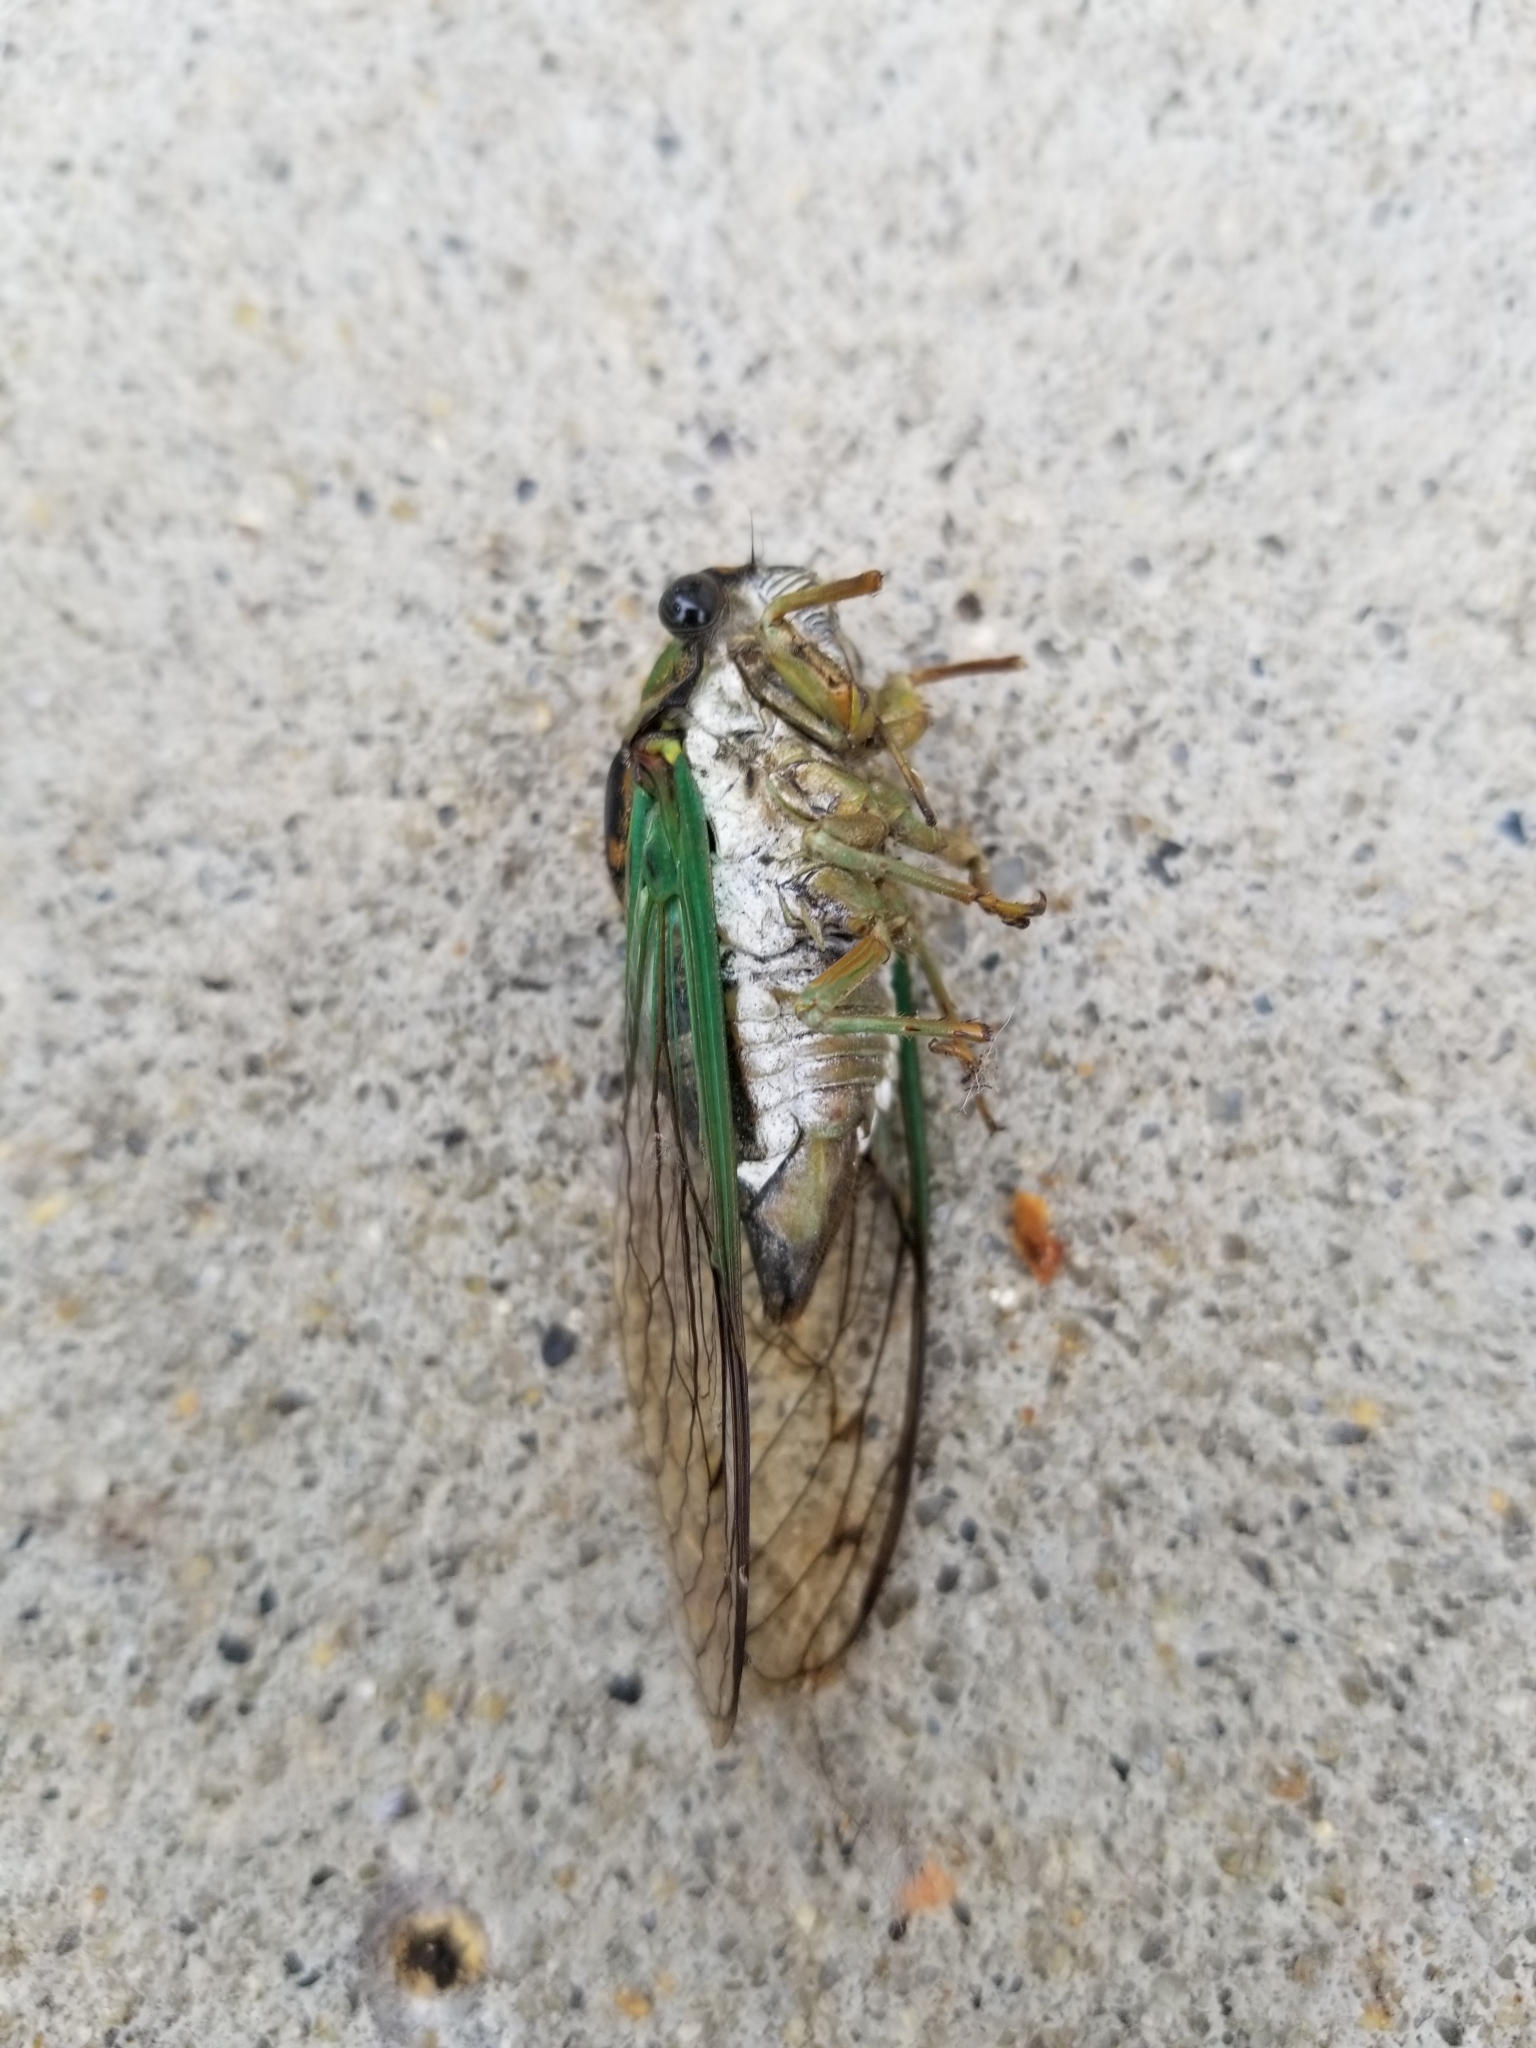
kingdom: Animalia
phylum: Arthropoda
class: Insecta
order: Hemiptera
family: Cicadidae
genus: Neotibicen
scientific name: Neotibicen tibicen
